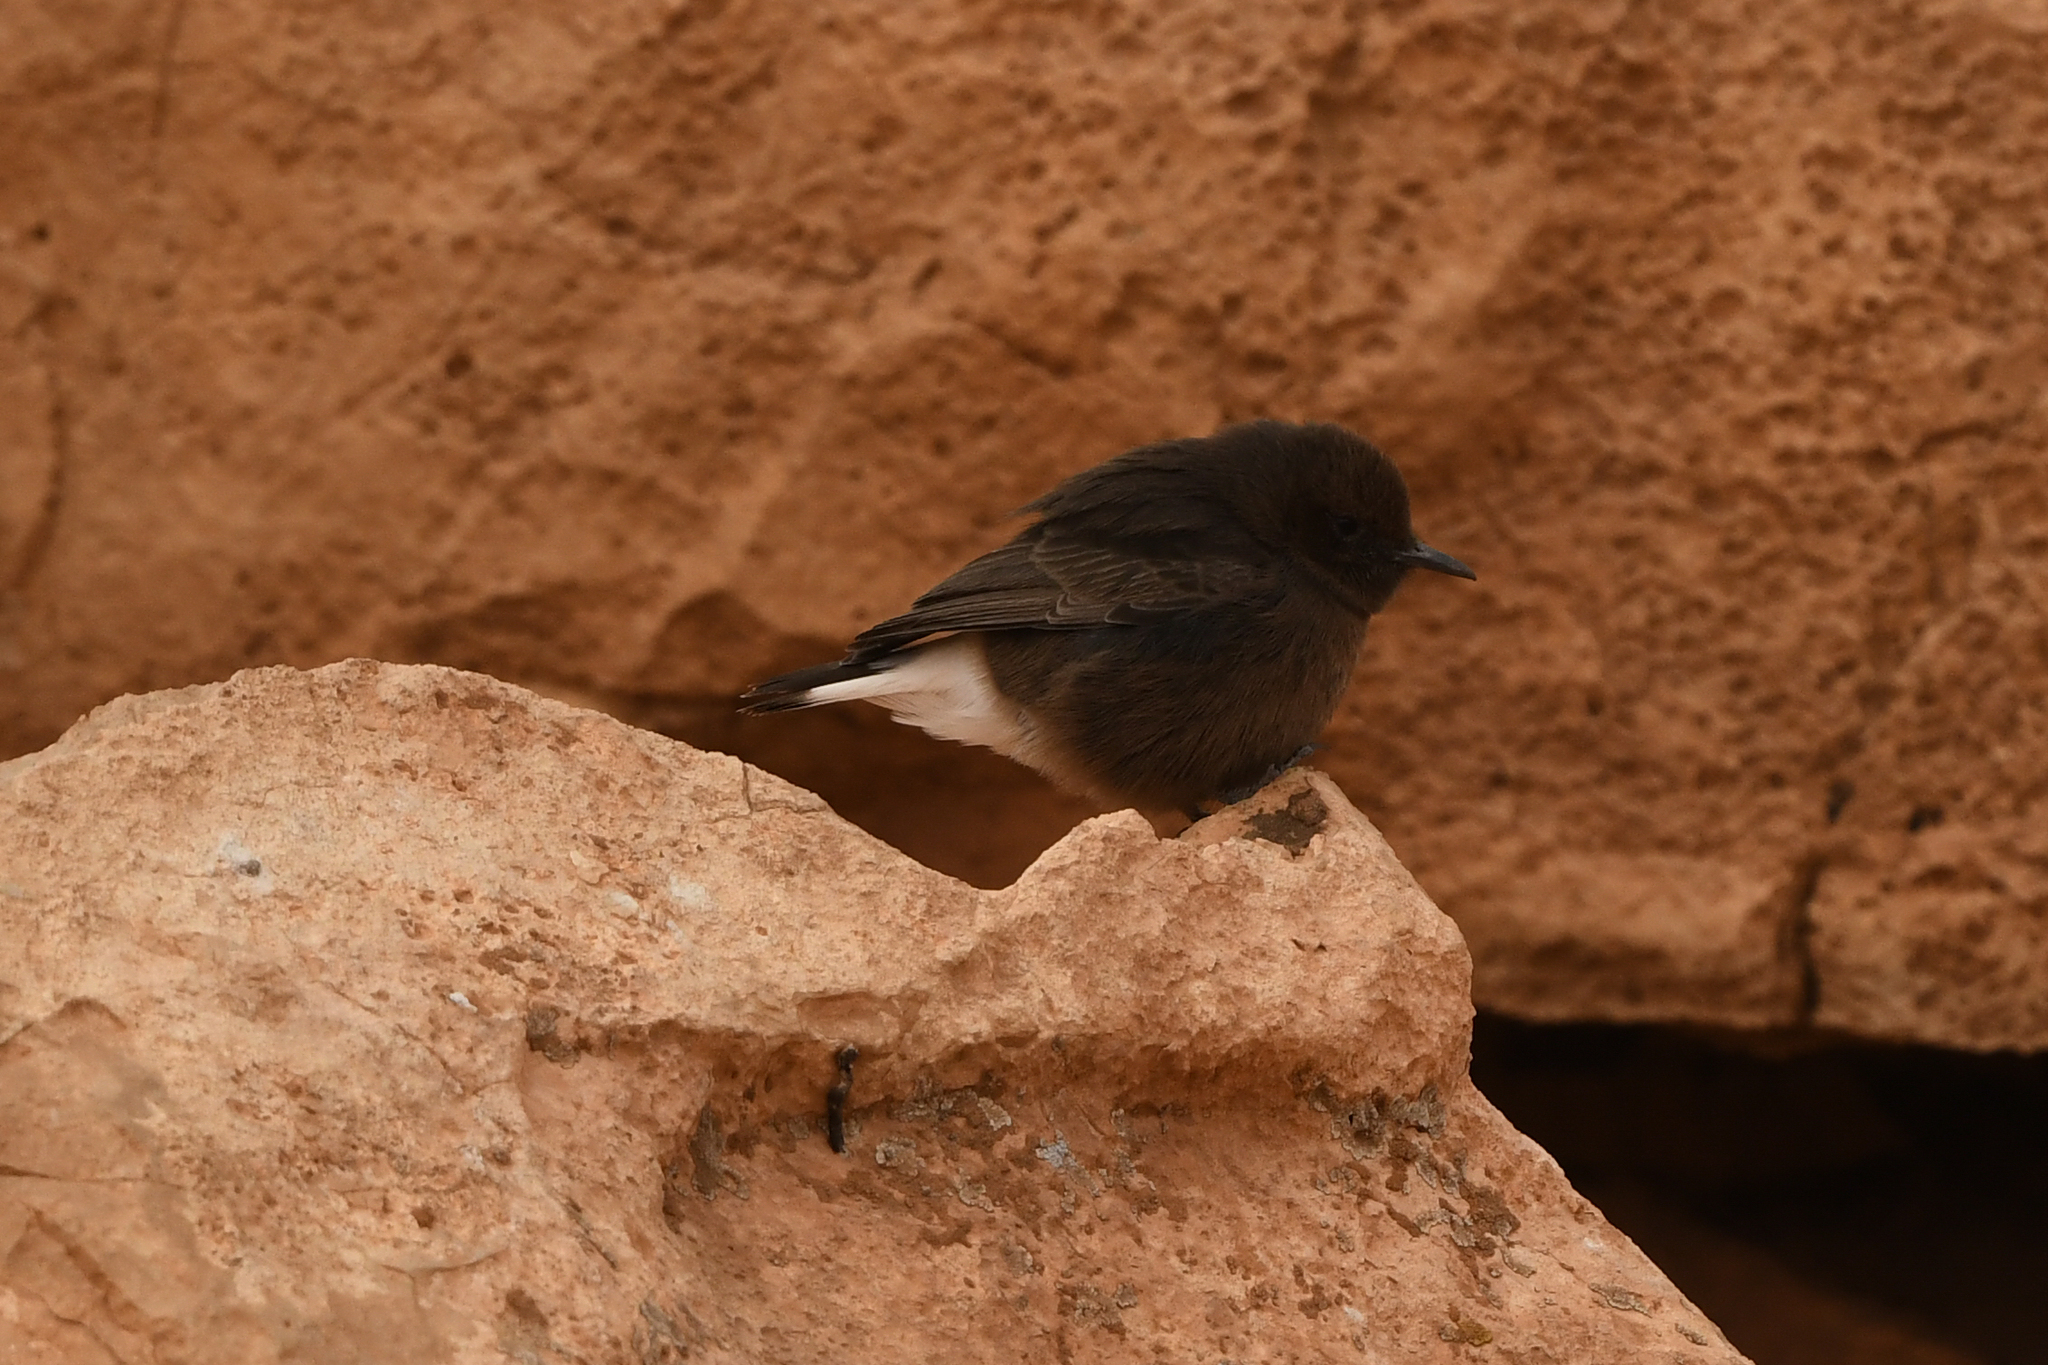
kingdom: Animalia
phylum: Chordata
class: Aves
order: Passeriformes
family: Muscicapidae
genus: Oenanthe
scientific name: Oenanthe leucura
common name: Black wheatear
